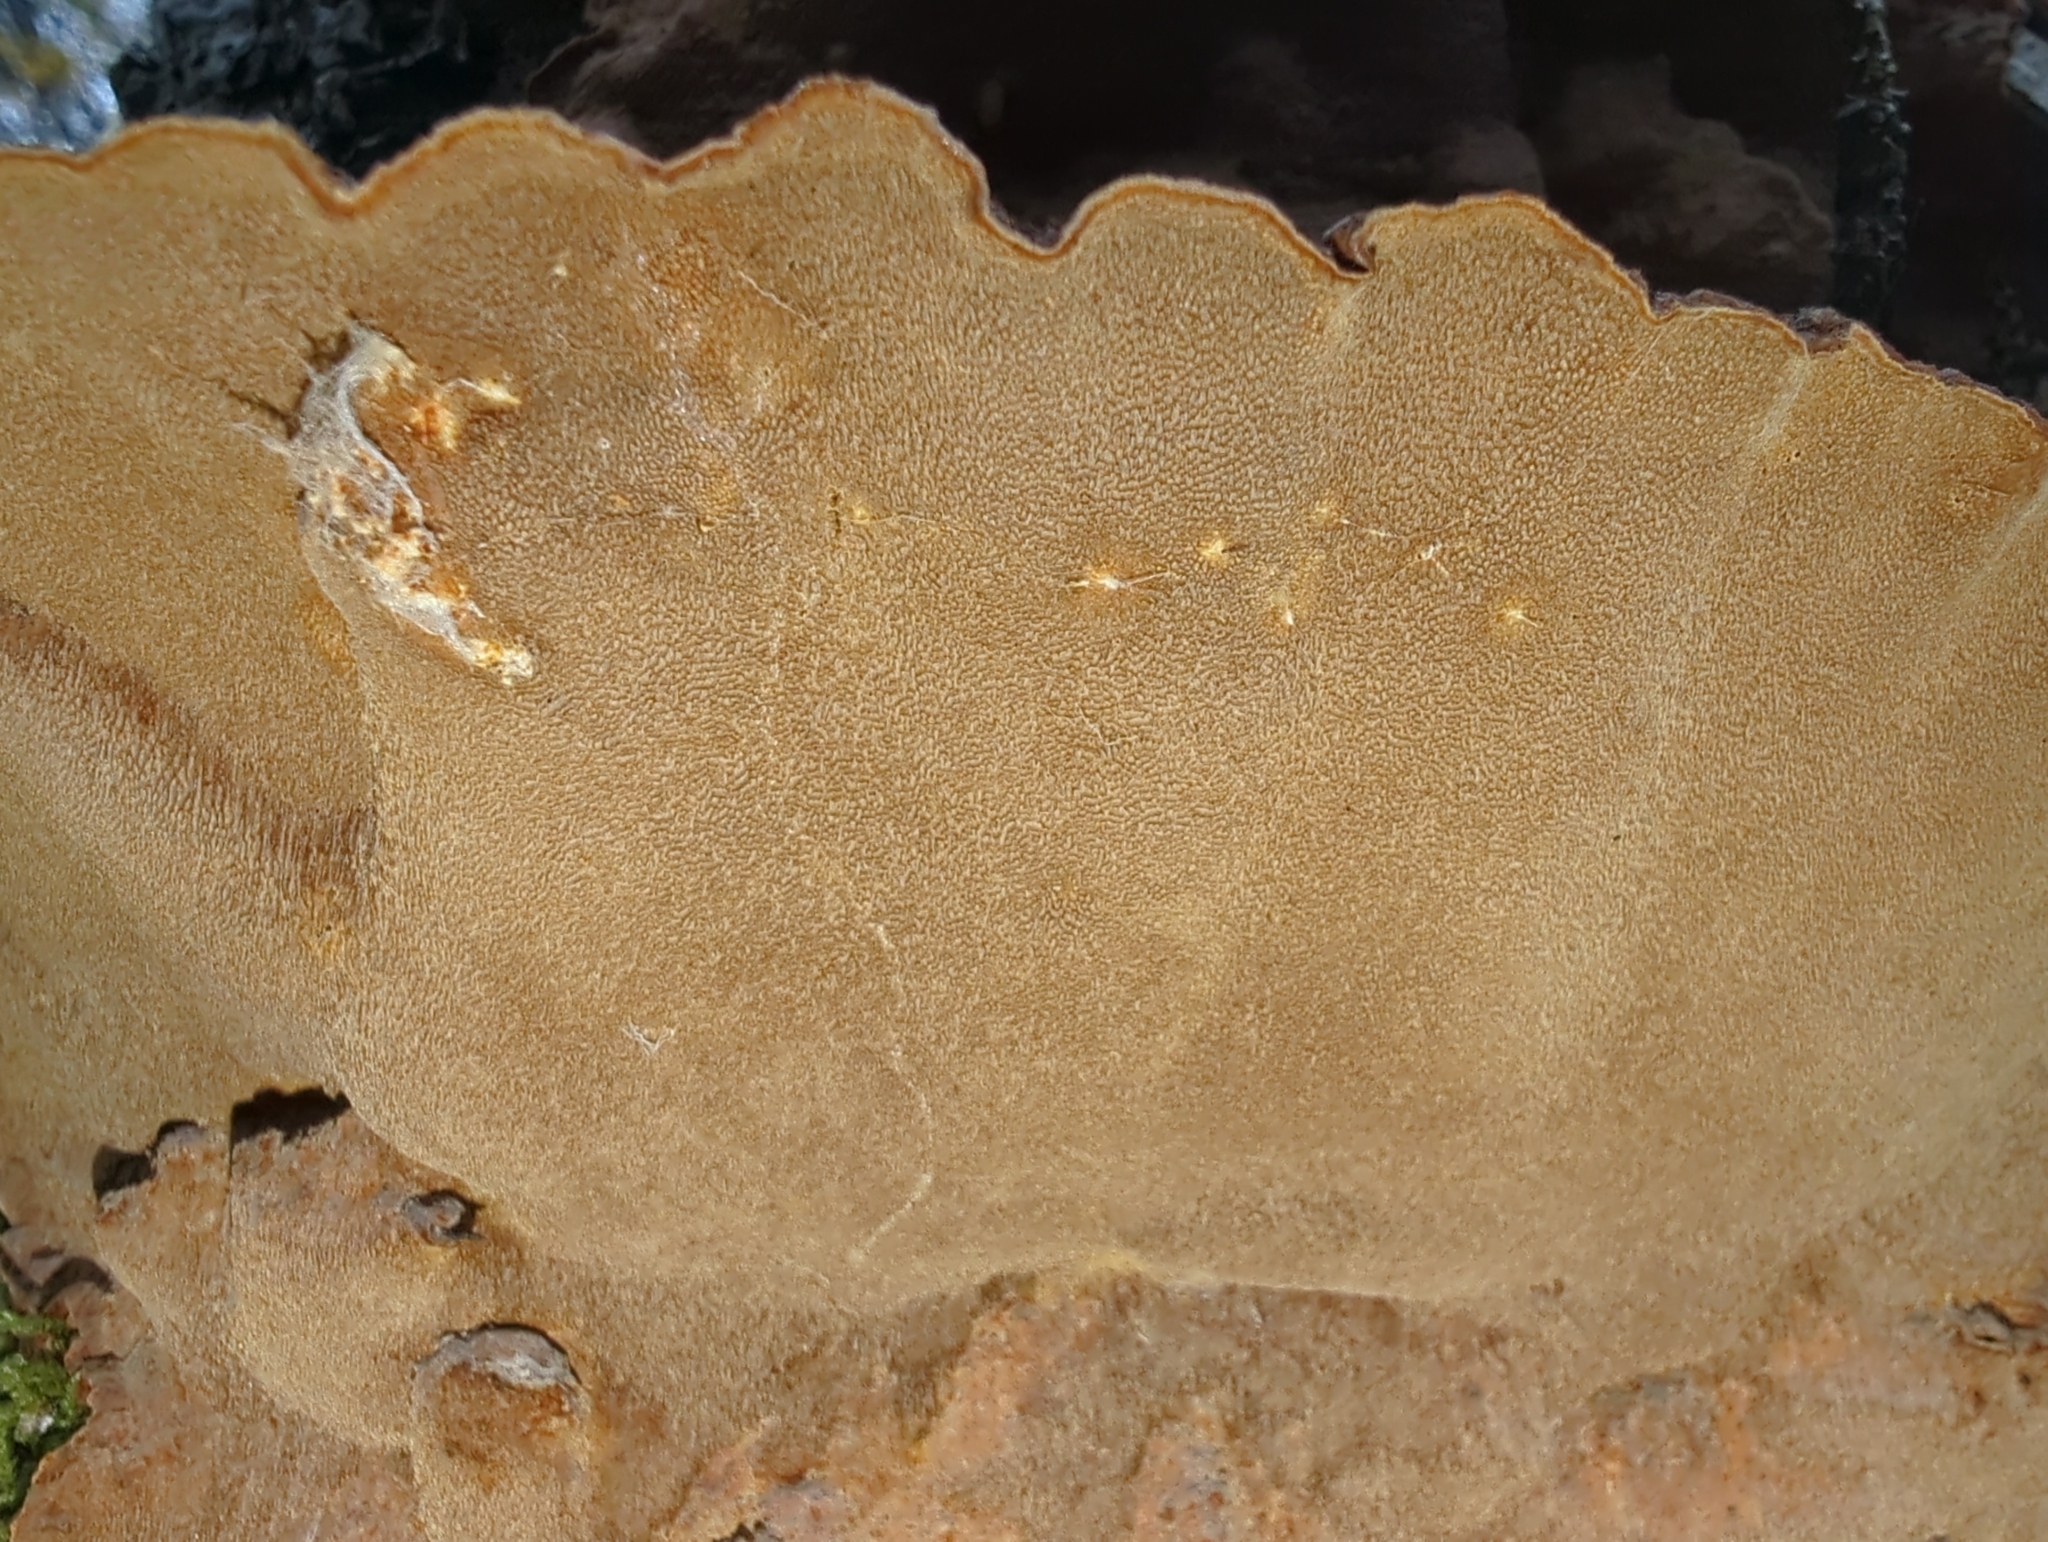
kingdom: Fungi
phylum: Basidiomycota
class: Agaricomycetes
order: Hymenochaetales
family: Hymenochaetaceae
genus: Porodaedalea
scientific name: Porodaedalea pini
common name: Pine bracket
